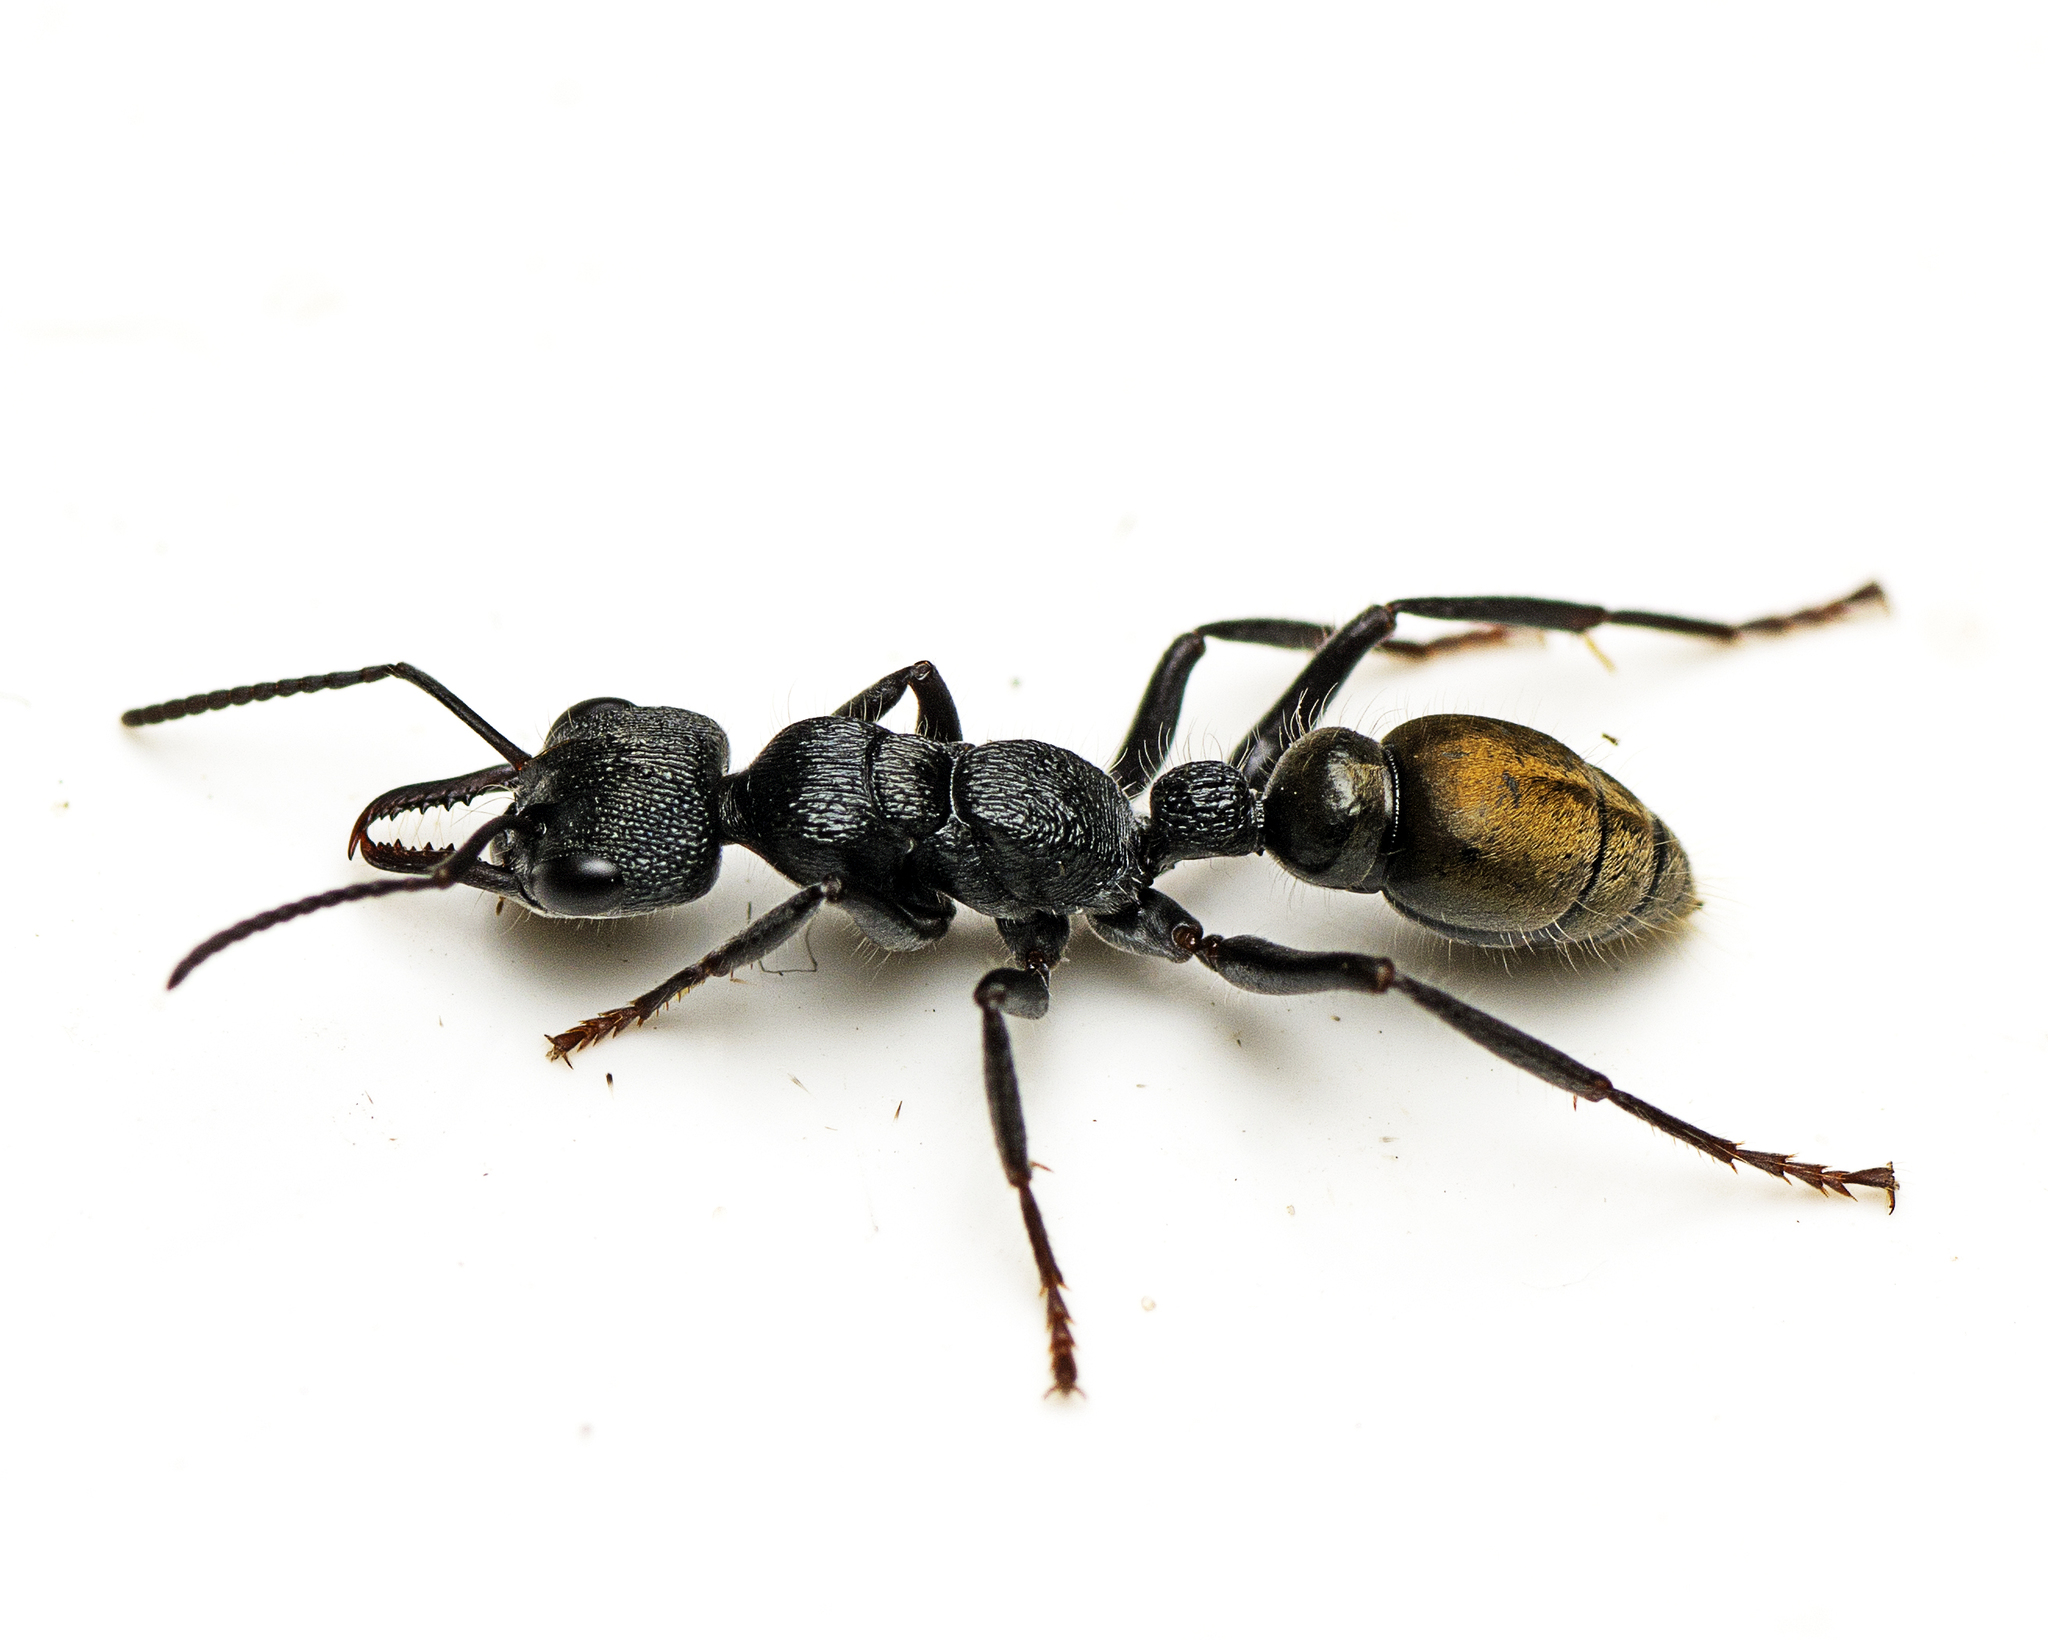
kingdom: Animalia
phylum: Arthropoda
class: Insecta
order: Hymenoptera
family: Formicidae
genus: Myrmecia
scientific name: Myrmecia queenslandica
